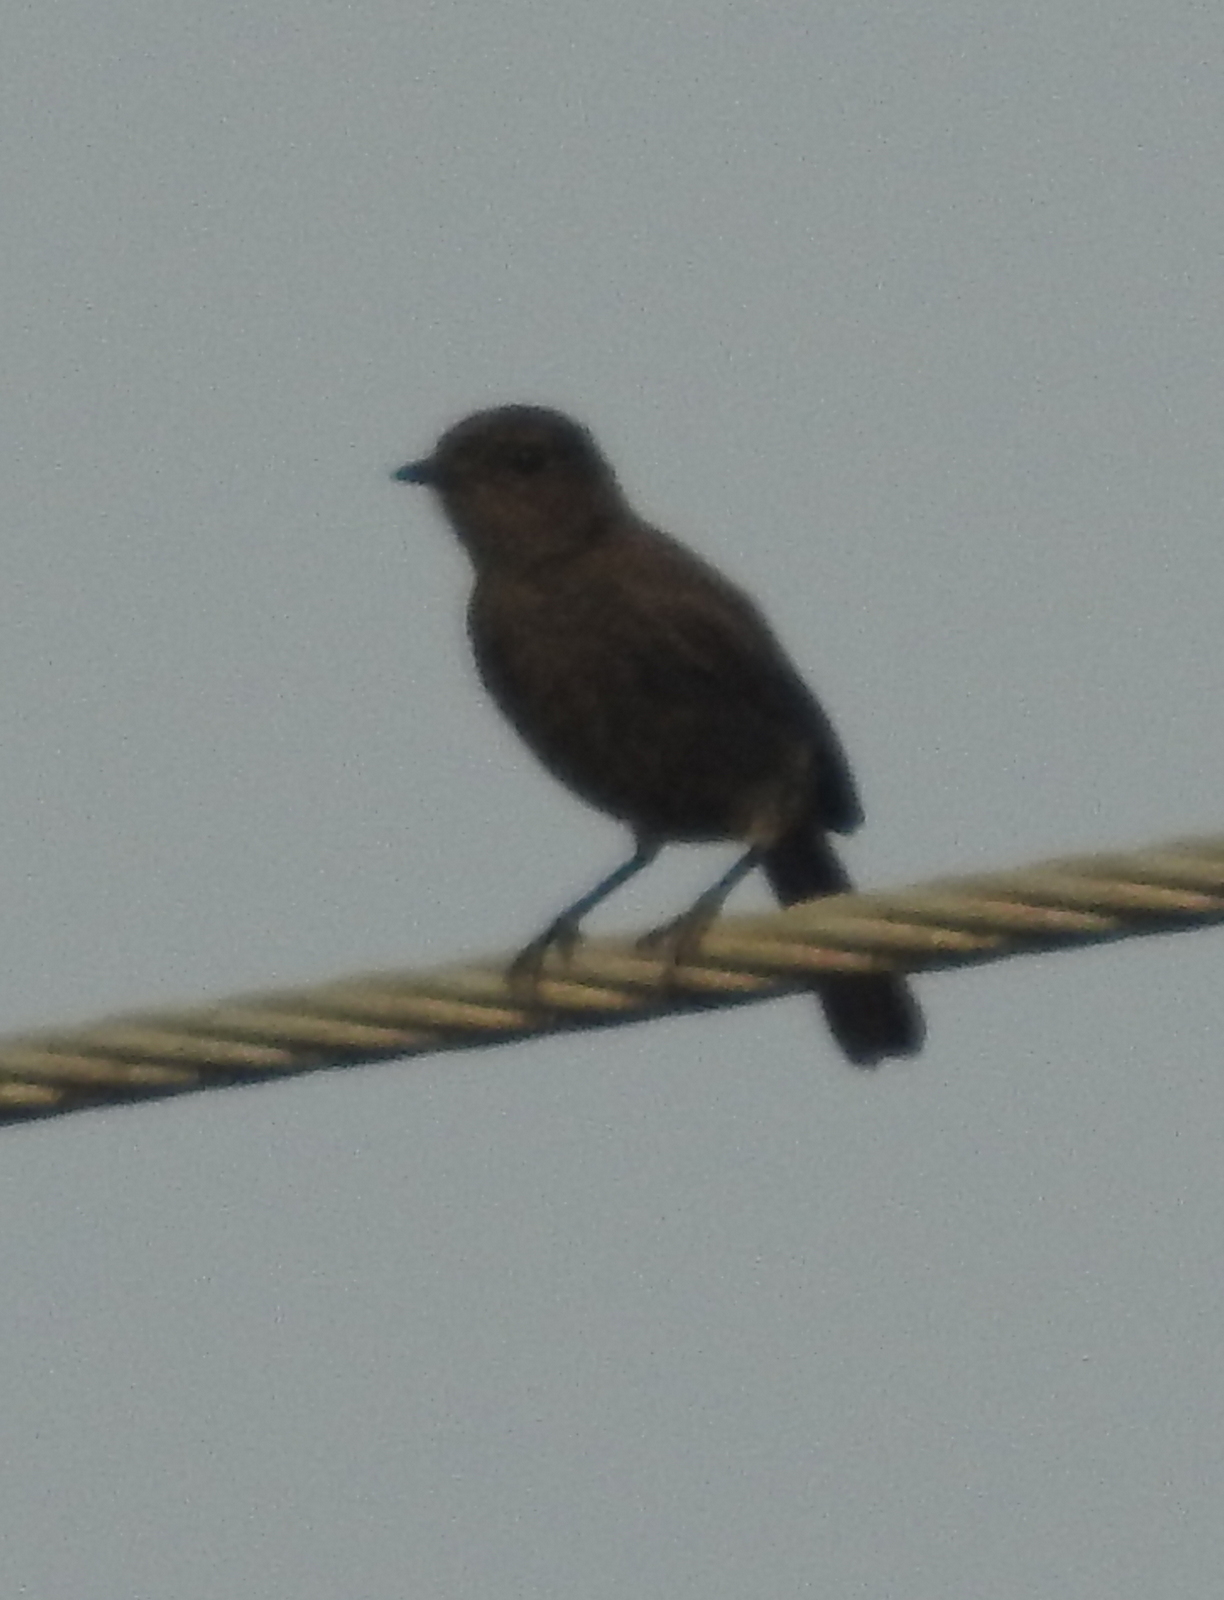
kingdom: Animalia
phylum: Chordata
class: Aves
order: Passeriformes
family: Muscicapidae
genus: Saxicola
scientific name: Saxicola caprata
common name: Pied bush chat
